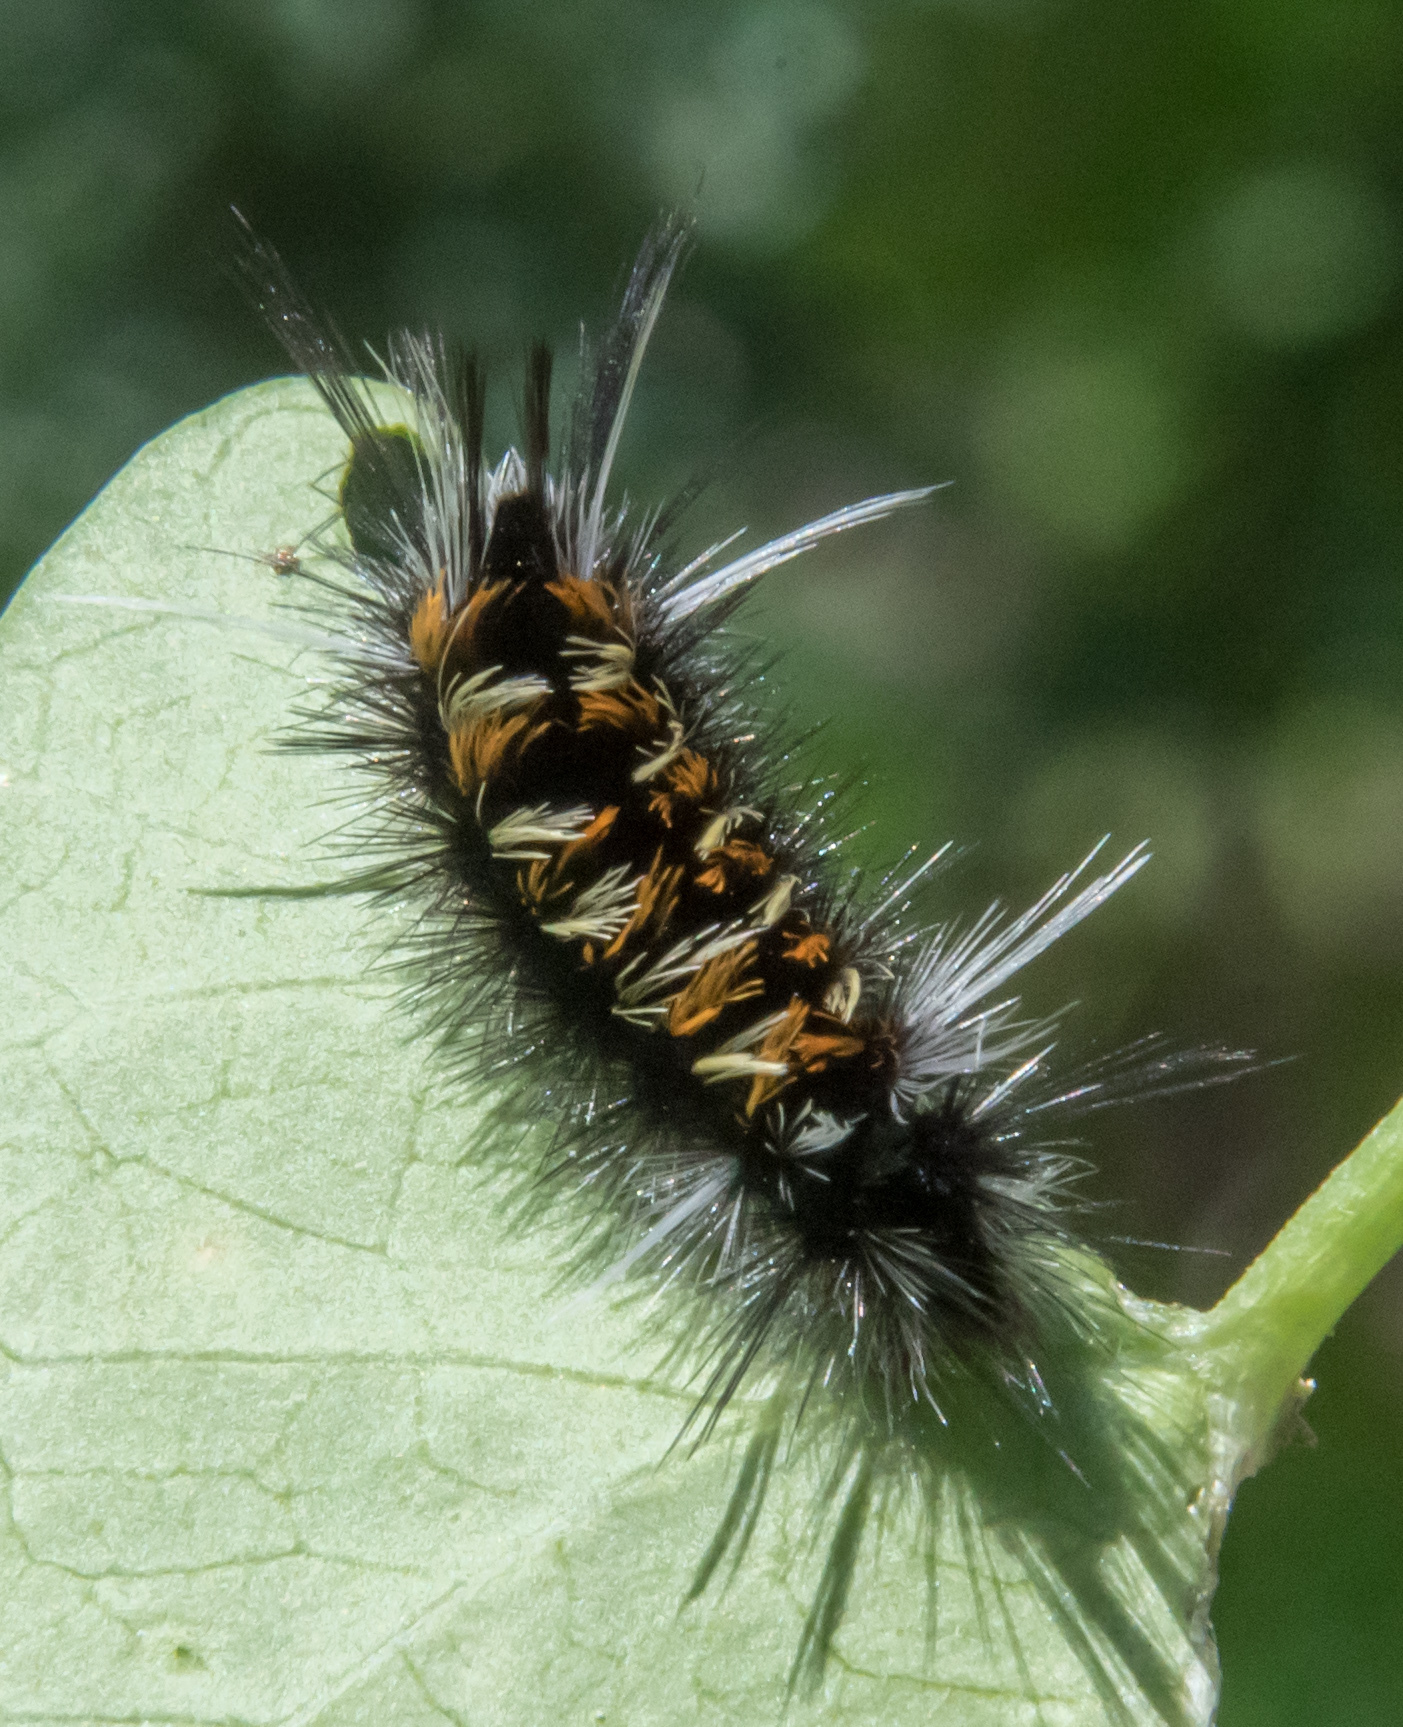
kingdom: Animalia
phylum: Arthropoda
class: Insecta
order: Lepidoptera
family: Erebidae
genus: Euchaetes
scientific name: Euchaetes
